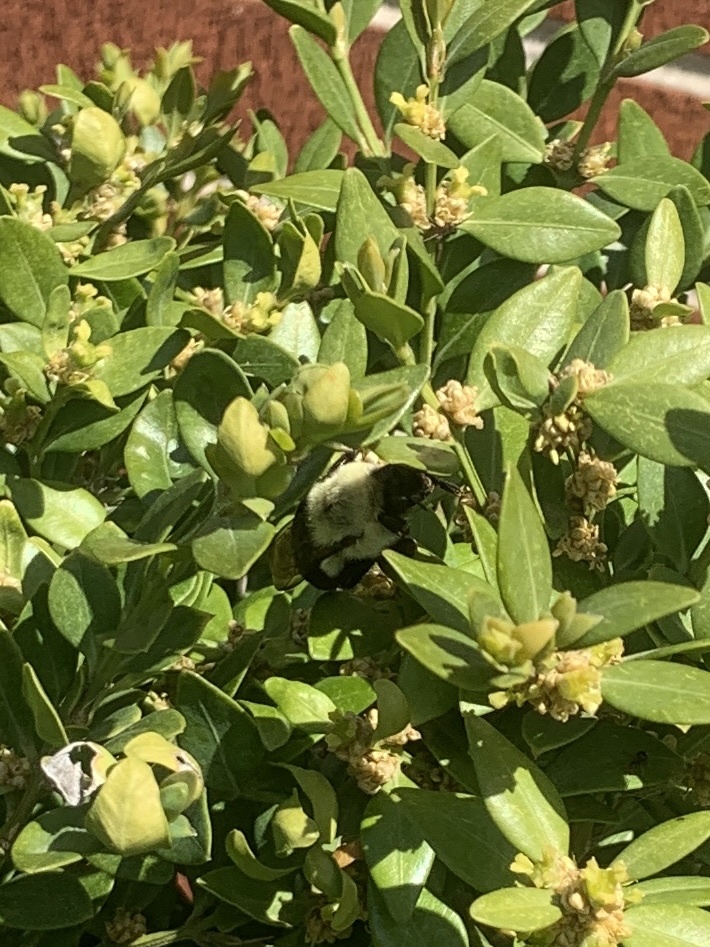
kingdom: Animalia
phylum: Arthropoda
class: Insecta
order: Hymenoptera
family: Apidae
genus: Bombus
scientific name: Bombus impatiens
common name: Common eastern bumble bee
